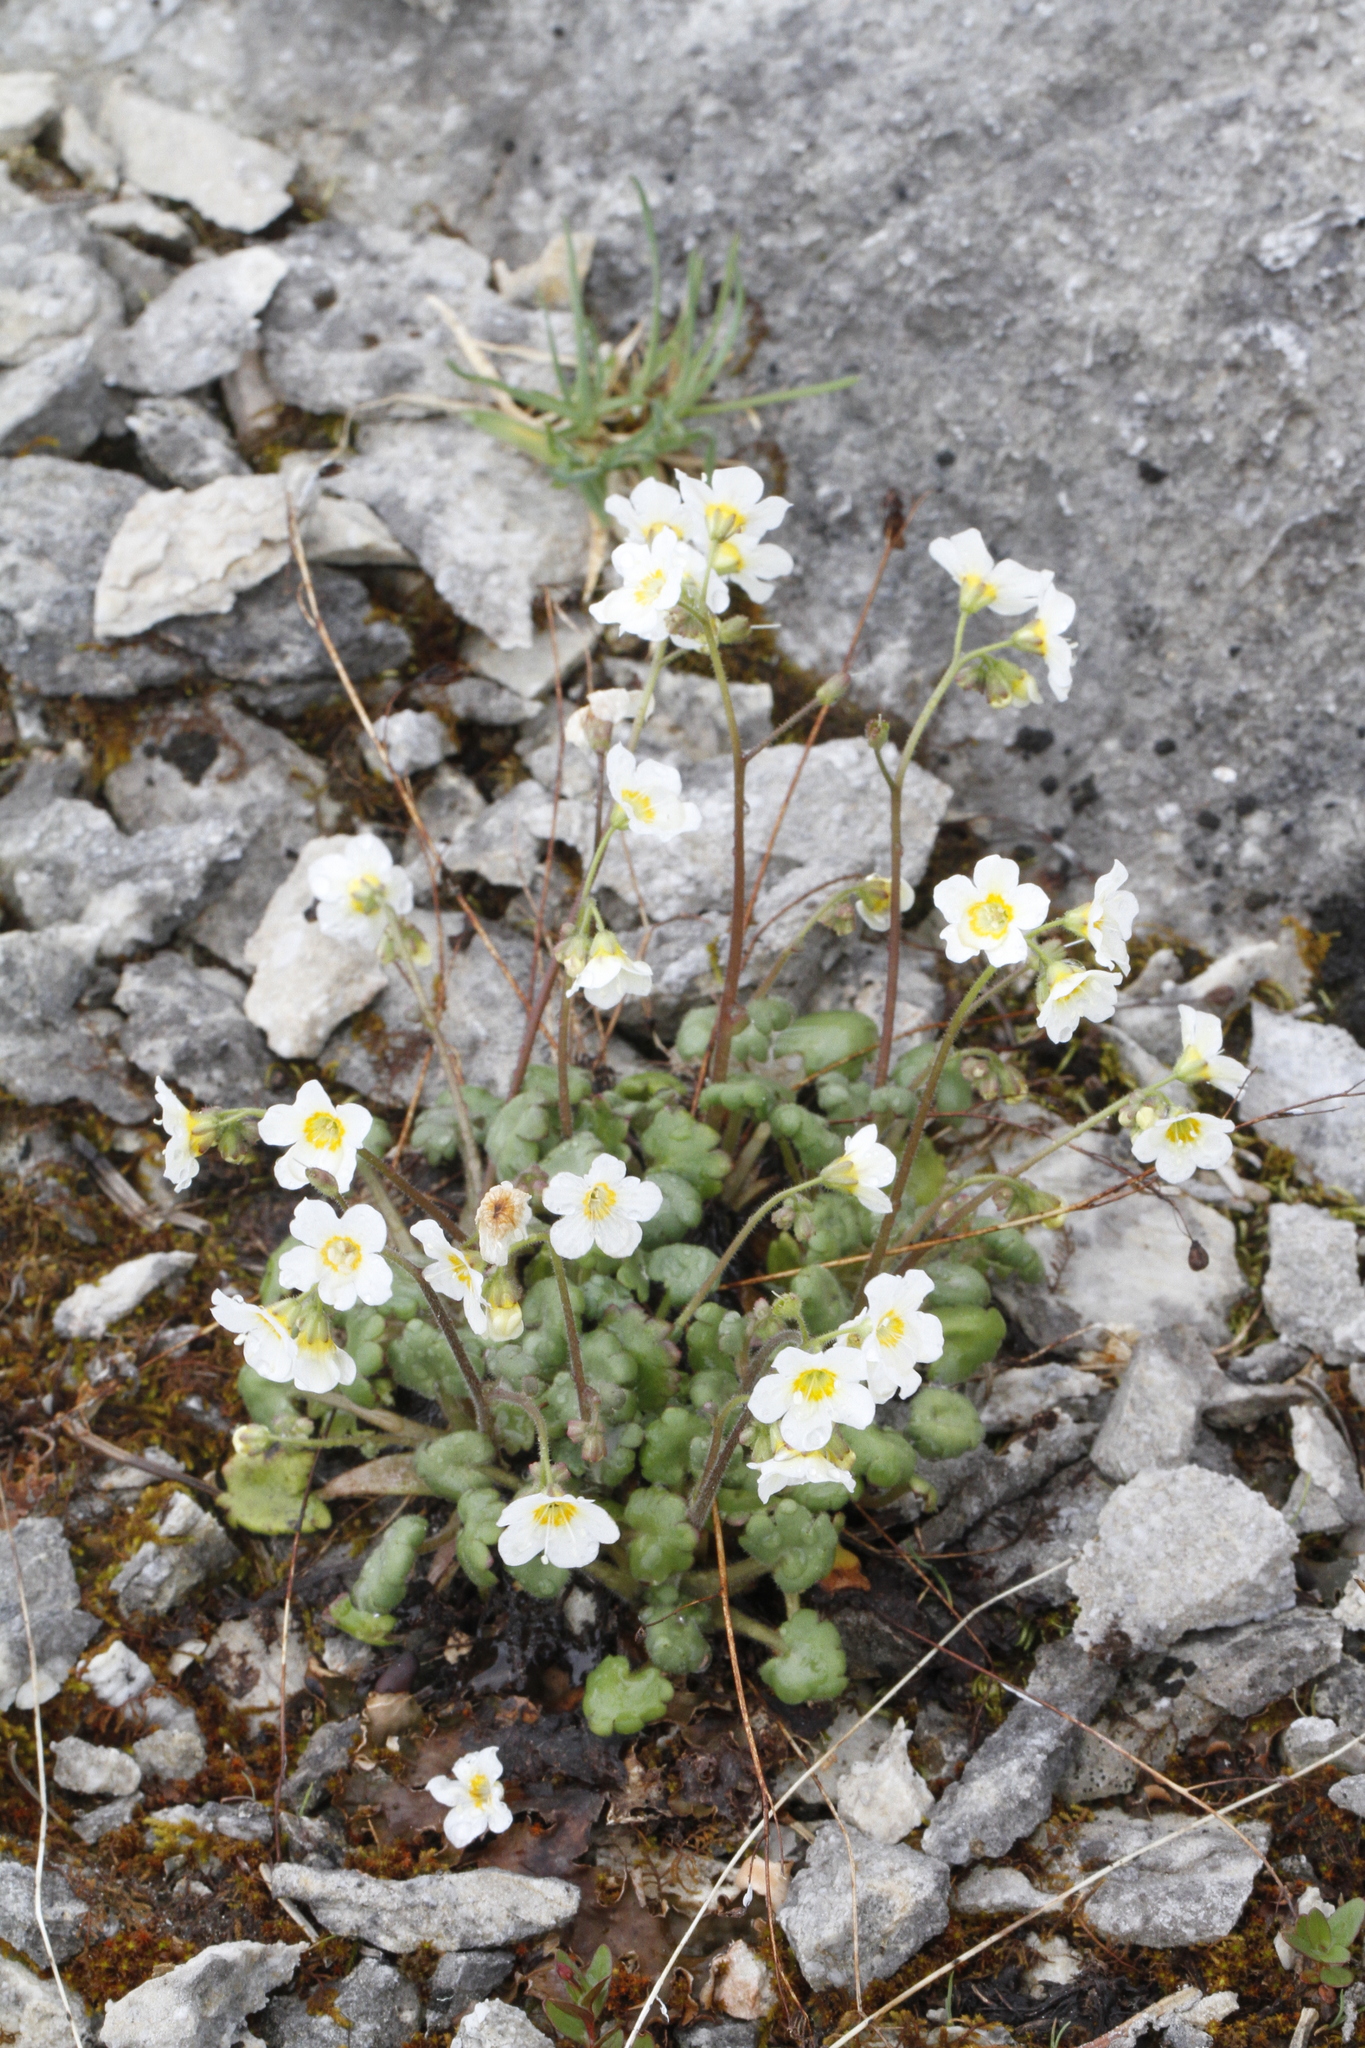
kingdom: Plantae
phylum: Tracheophyta
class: Magnoliopsida
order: Boraginales
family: Hydrophyllaceae
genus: Romanzoffia
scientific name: Romanzoffia sitchensis
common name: Sitka mistmaid
